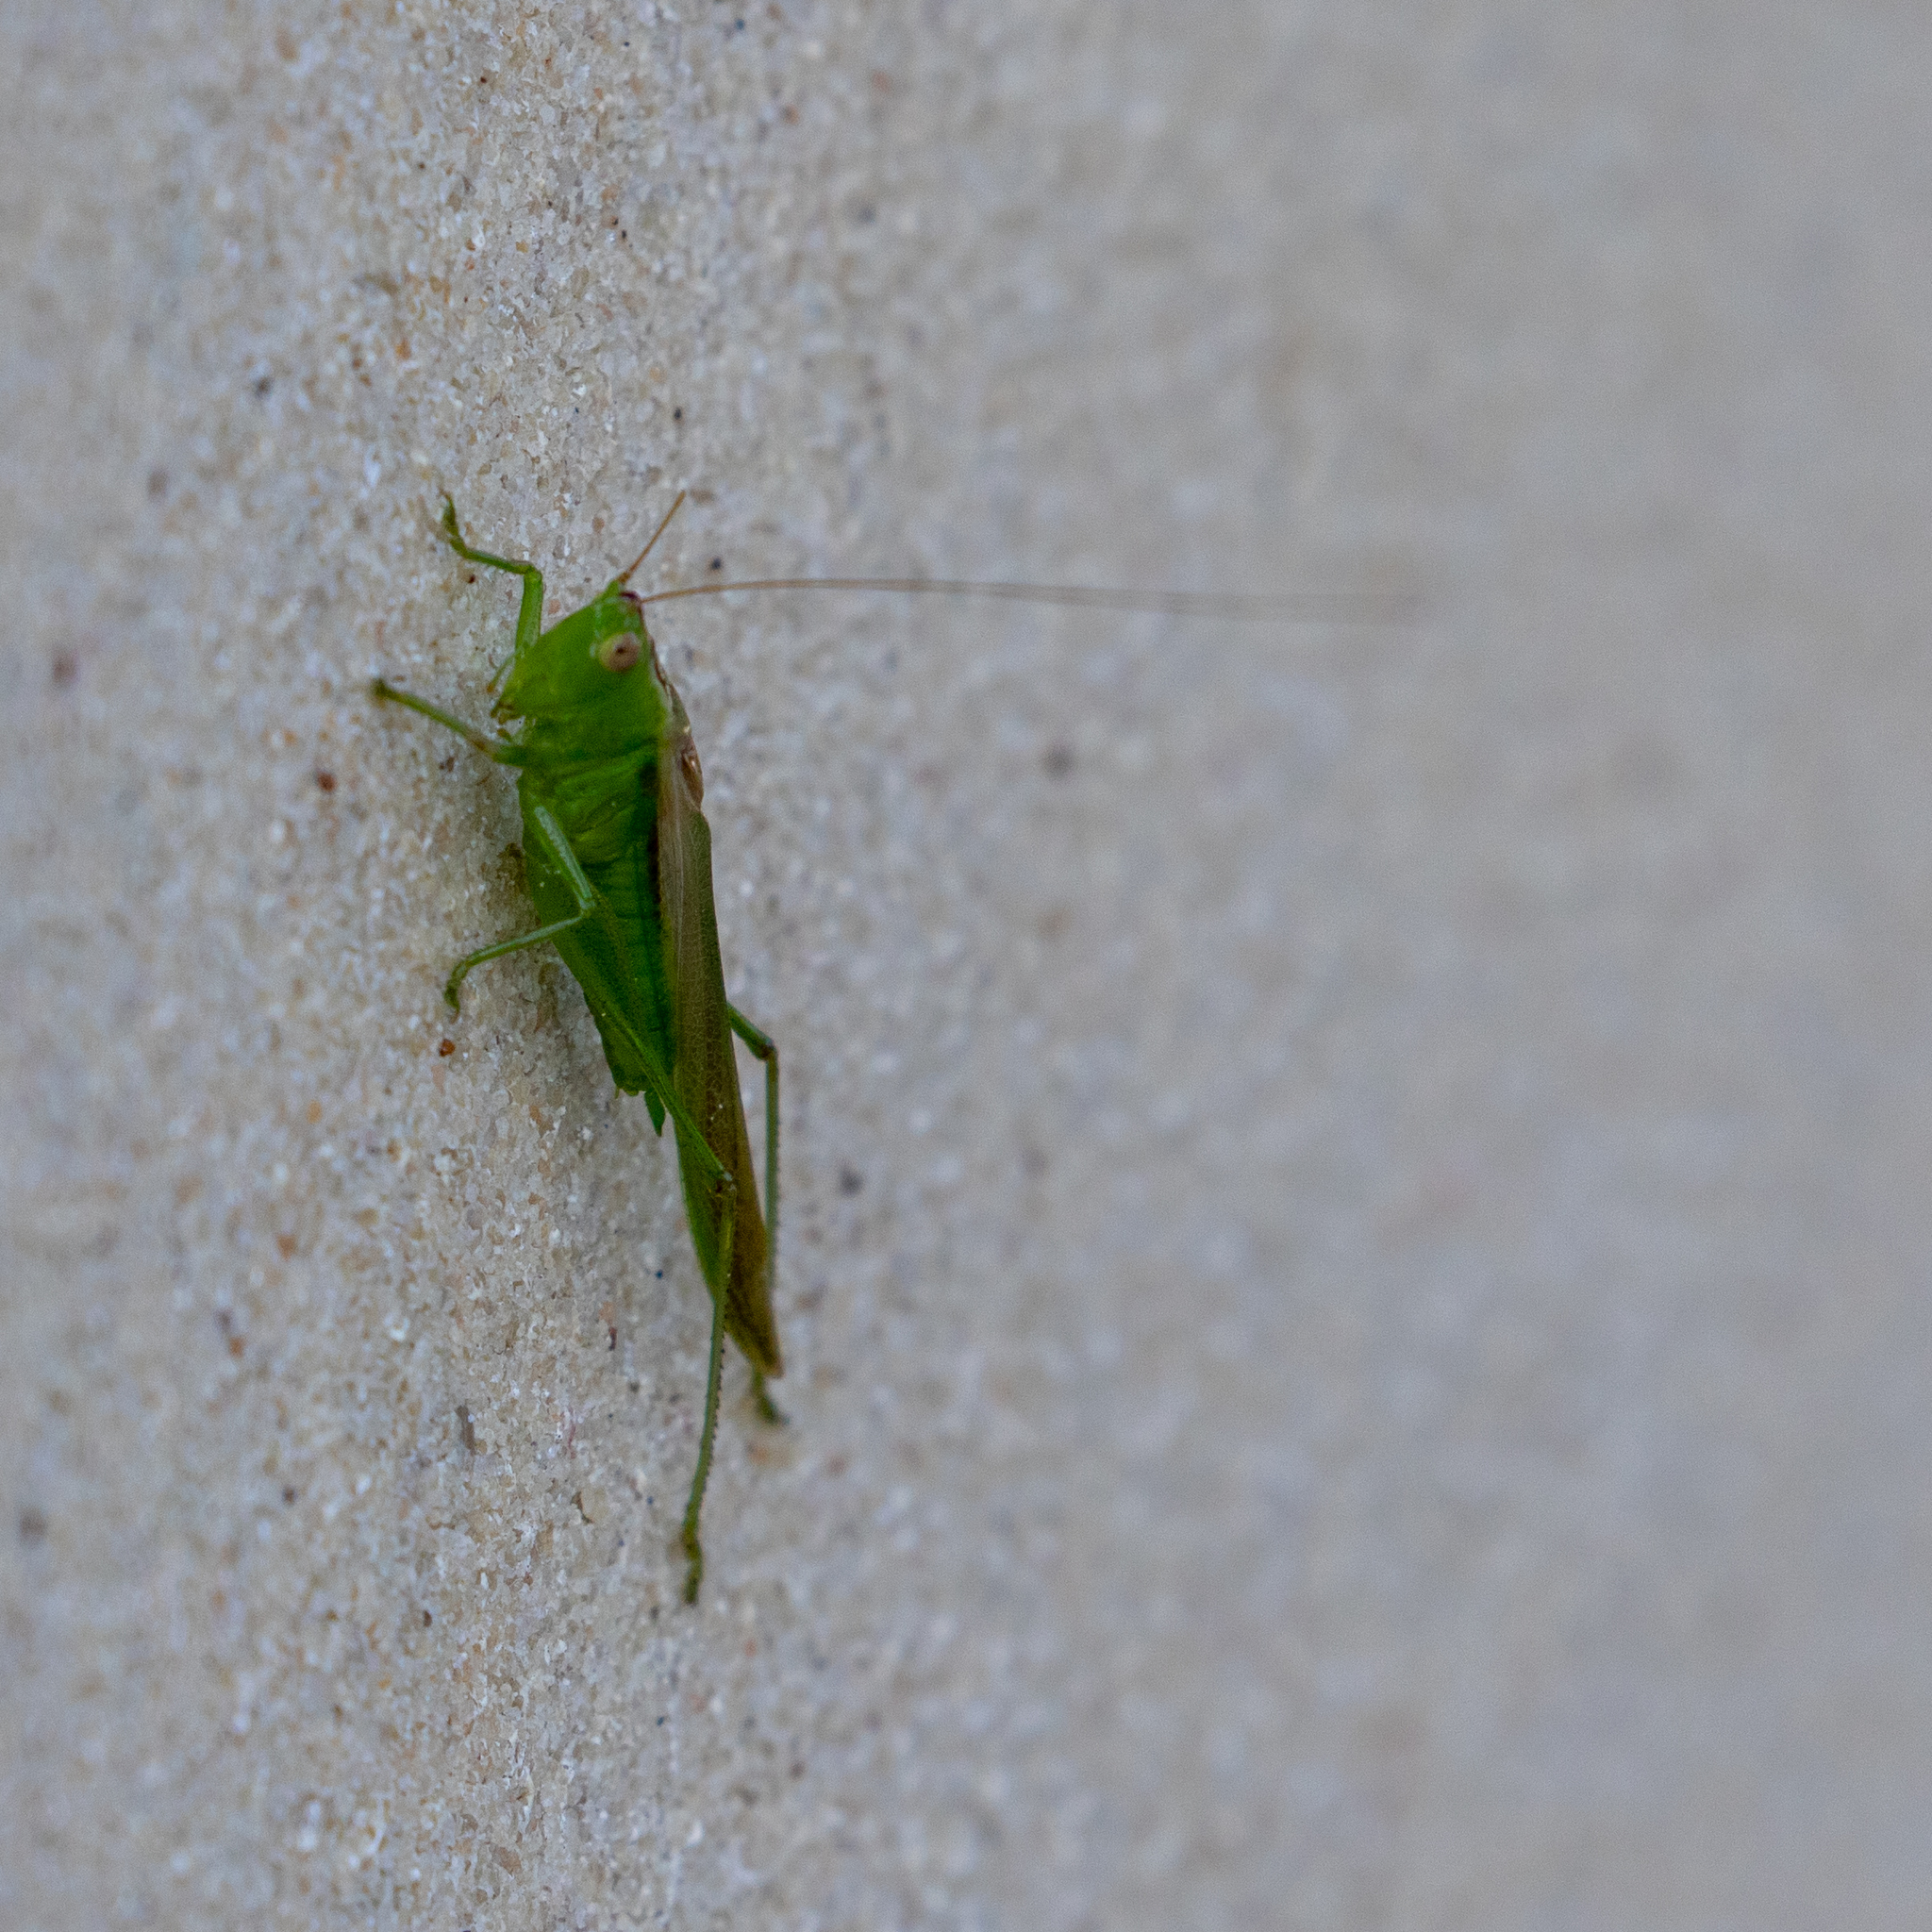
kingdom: Animalia
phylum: Arthropoda
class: Insecta
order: Orthoptera
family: Tettigoniidae
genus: Conocephalus
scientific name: Conocephalus fasciatus
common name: Slender meadow katydid
